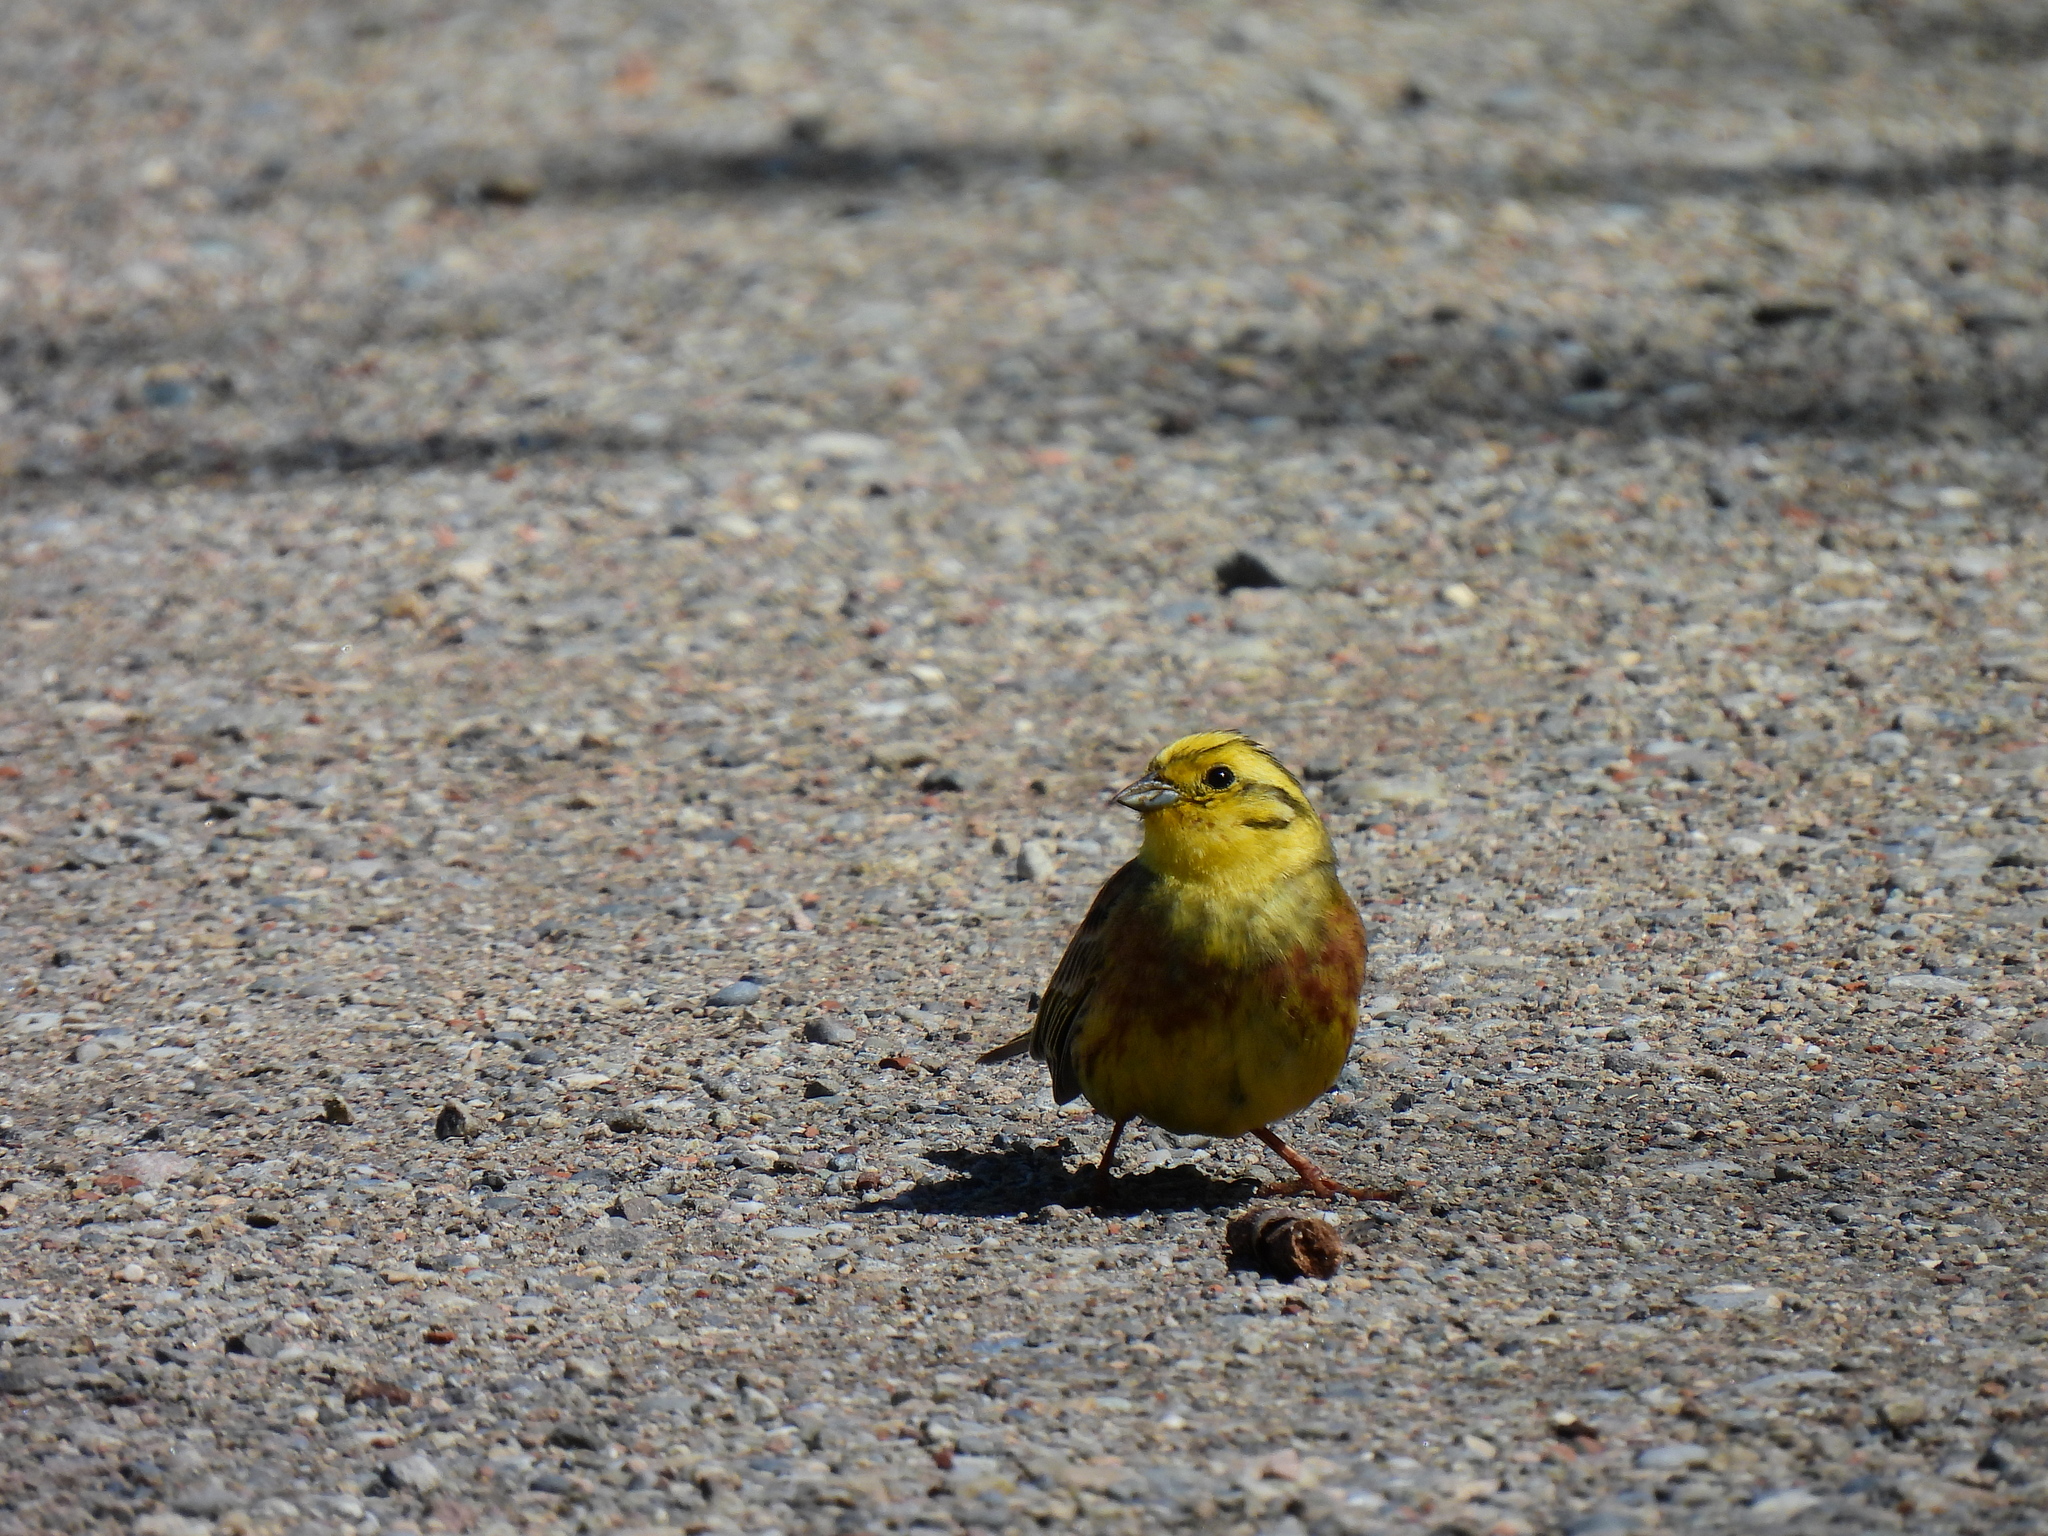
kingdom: Animalia
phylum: Chordata
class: Aves
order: Passeriformes
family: Emberizidae
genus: Emberiza
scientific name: Emberiza citrinella
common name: Yellowhammer
